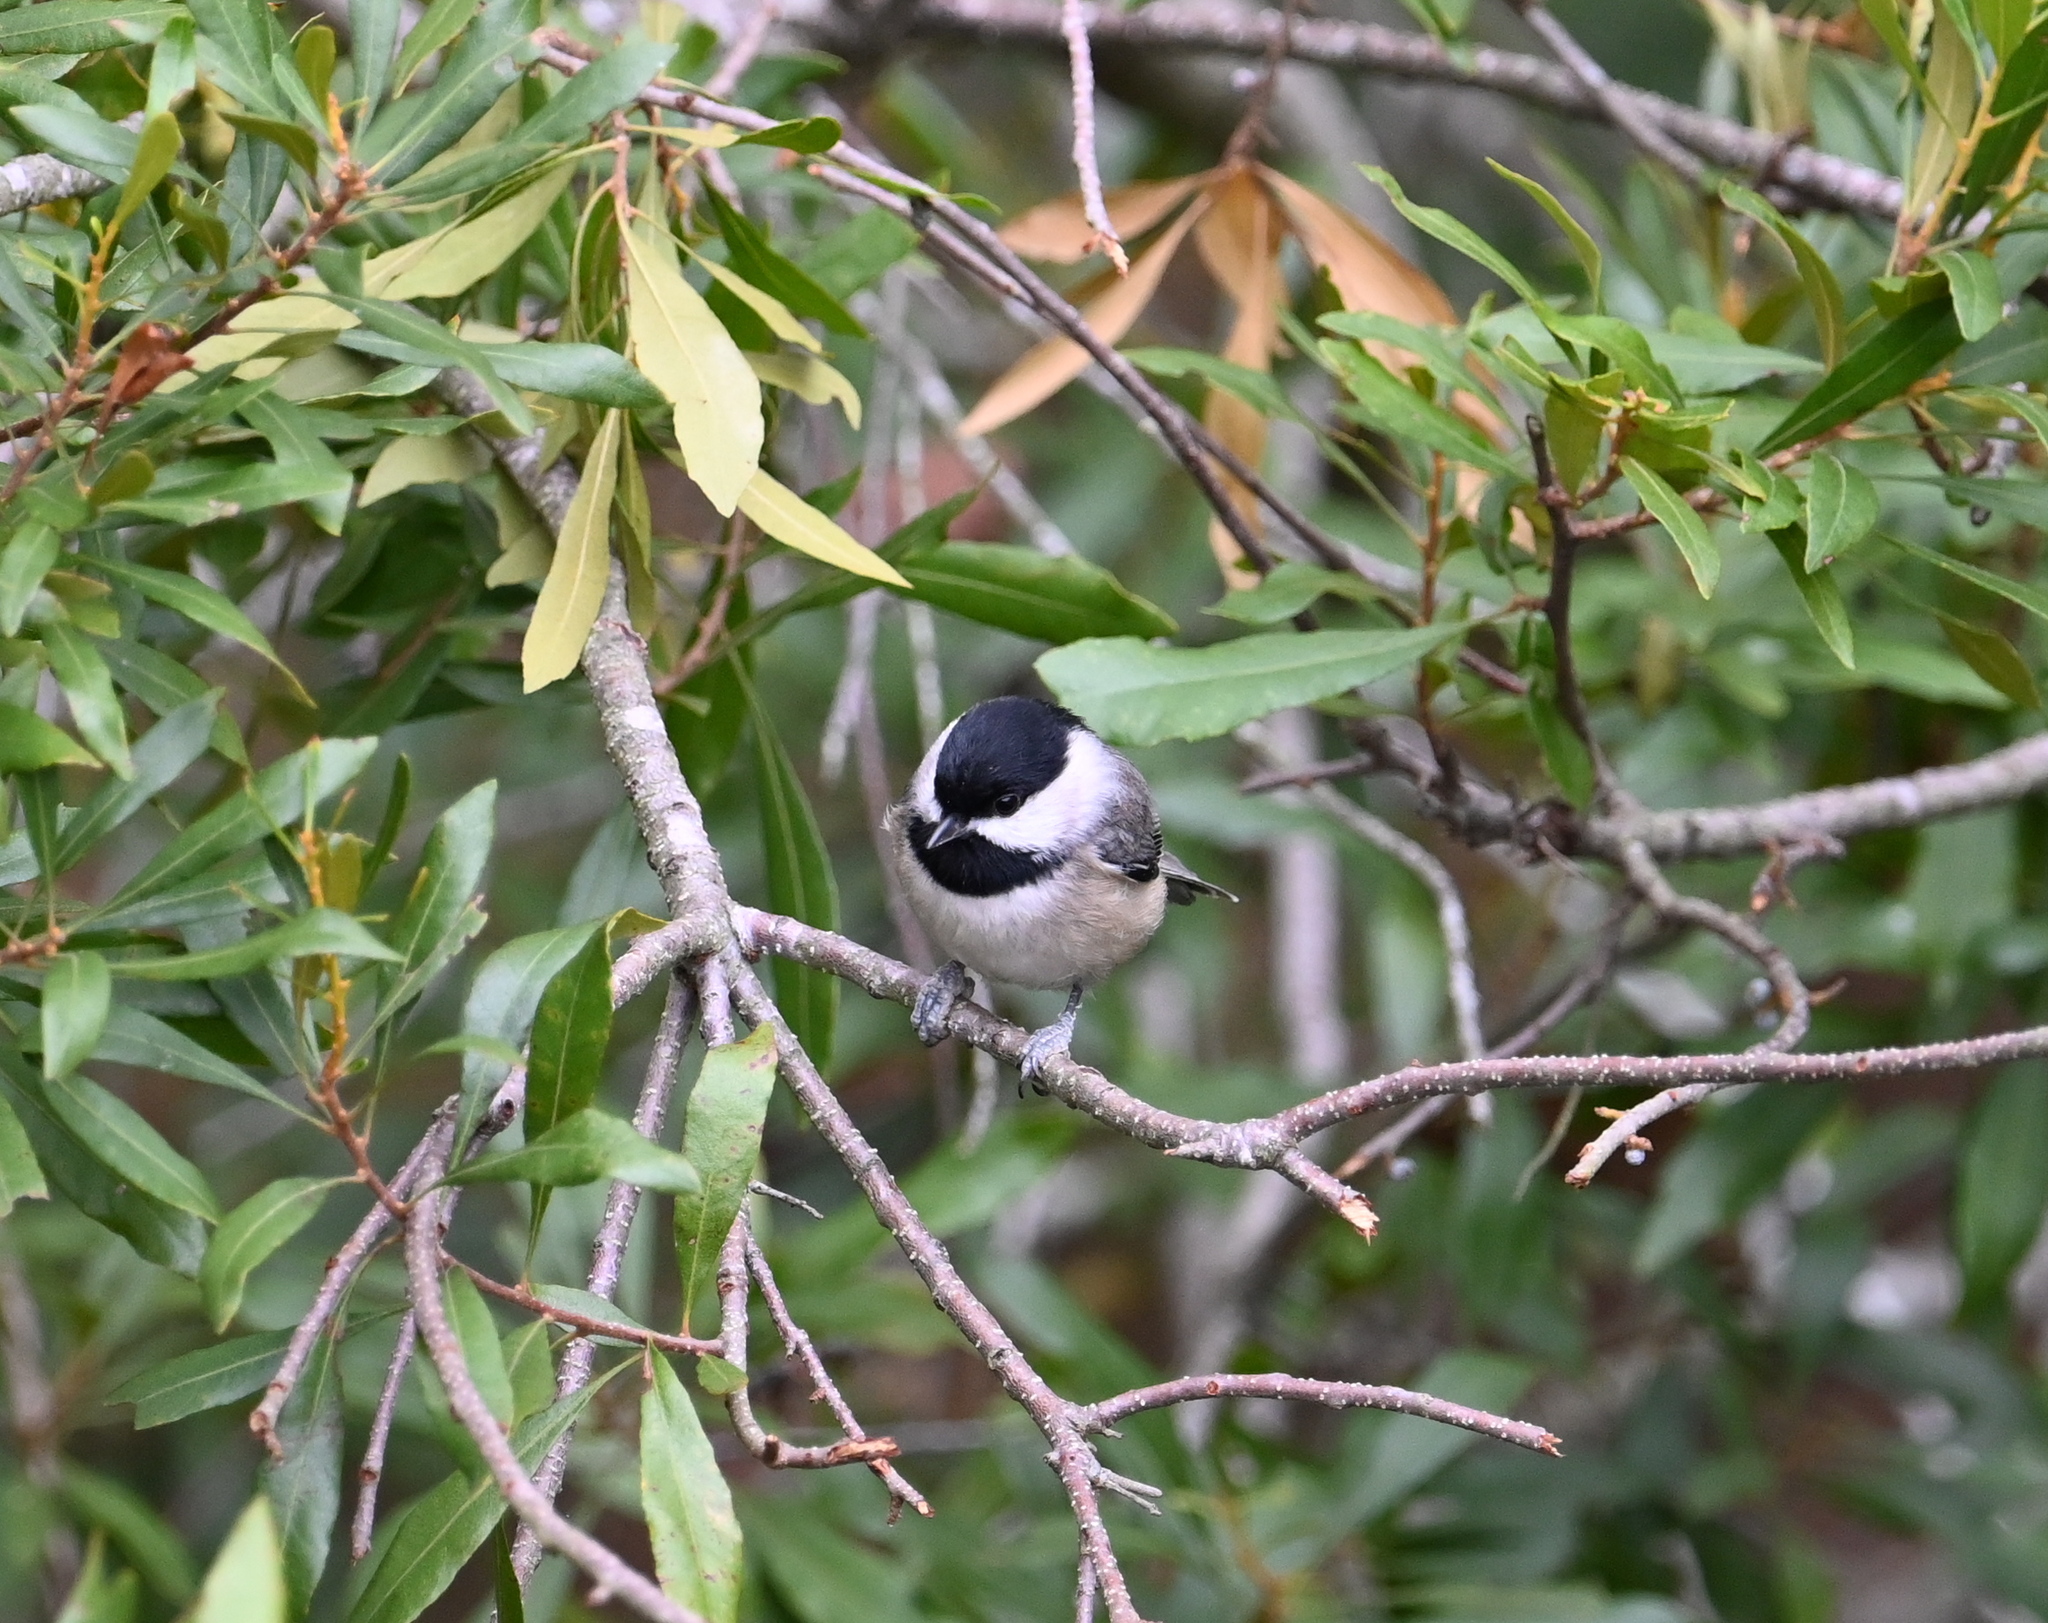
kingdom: Animalia
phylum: Chordata
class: Aves
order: Passeriformes
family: Paridae
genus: Poecile
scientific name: Poecile carolinensis
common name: Carolina chickadee
